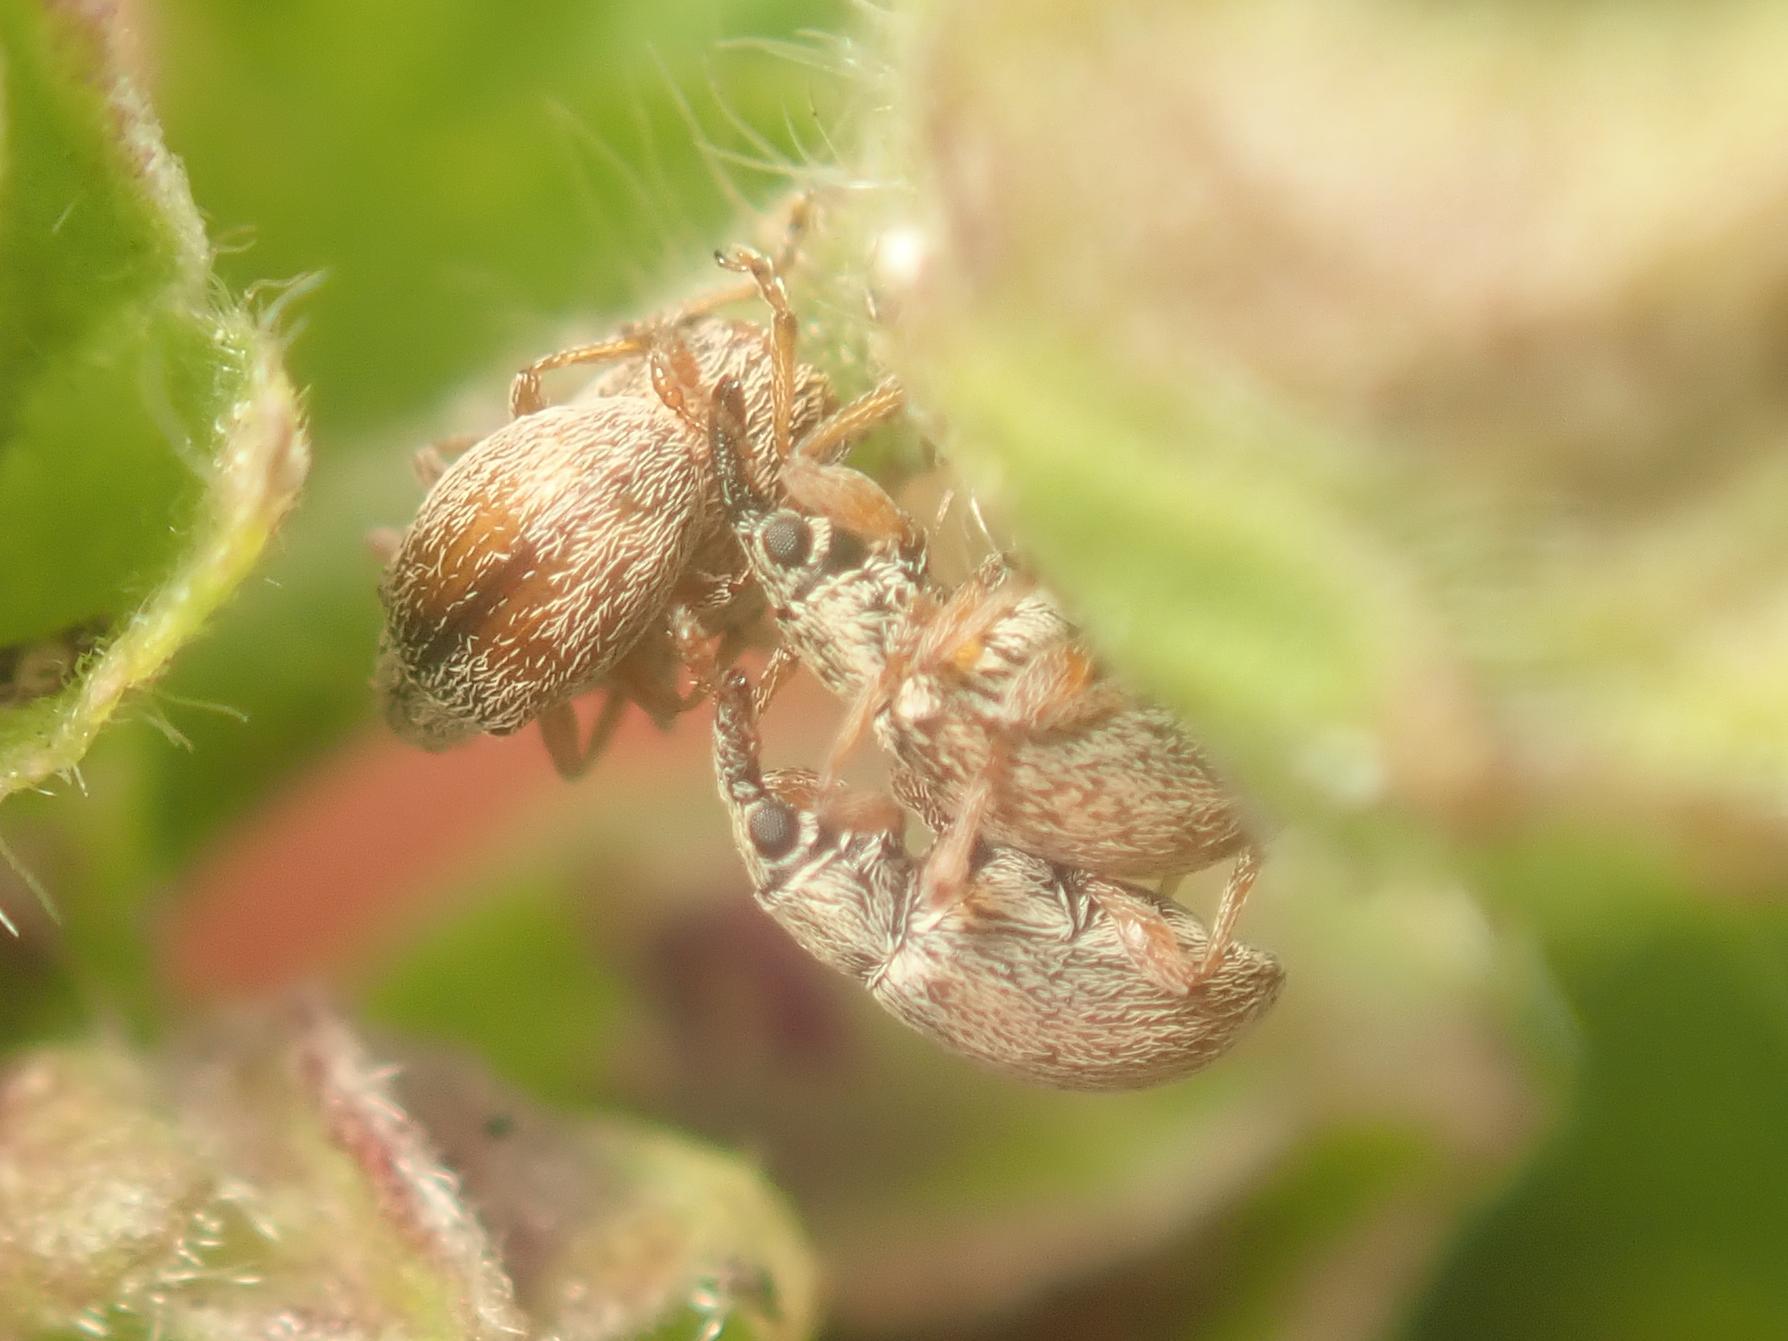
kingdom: Animalia
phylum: Arthropoda
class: Insecta
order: Coleoptera
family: Apionidae
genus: Malvapion
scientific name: Malvapion malvae
